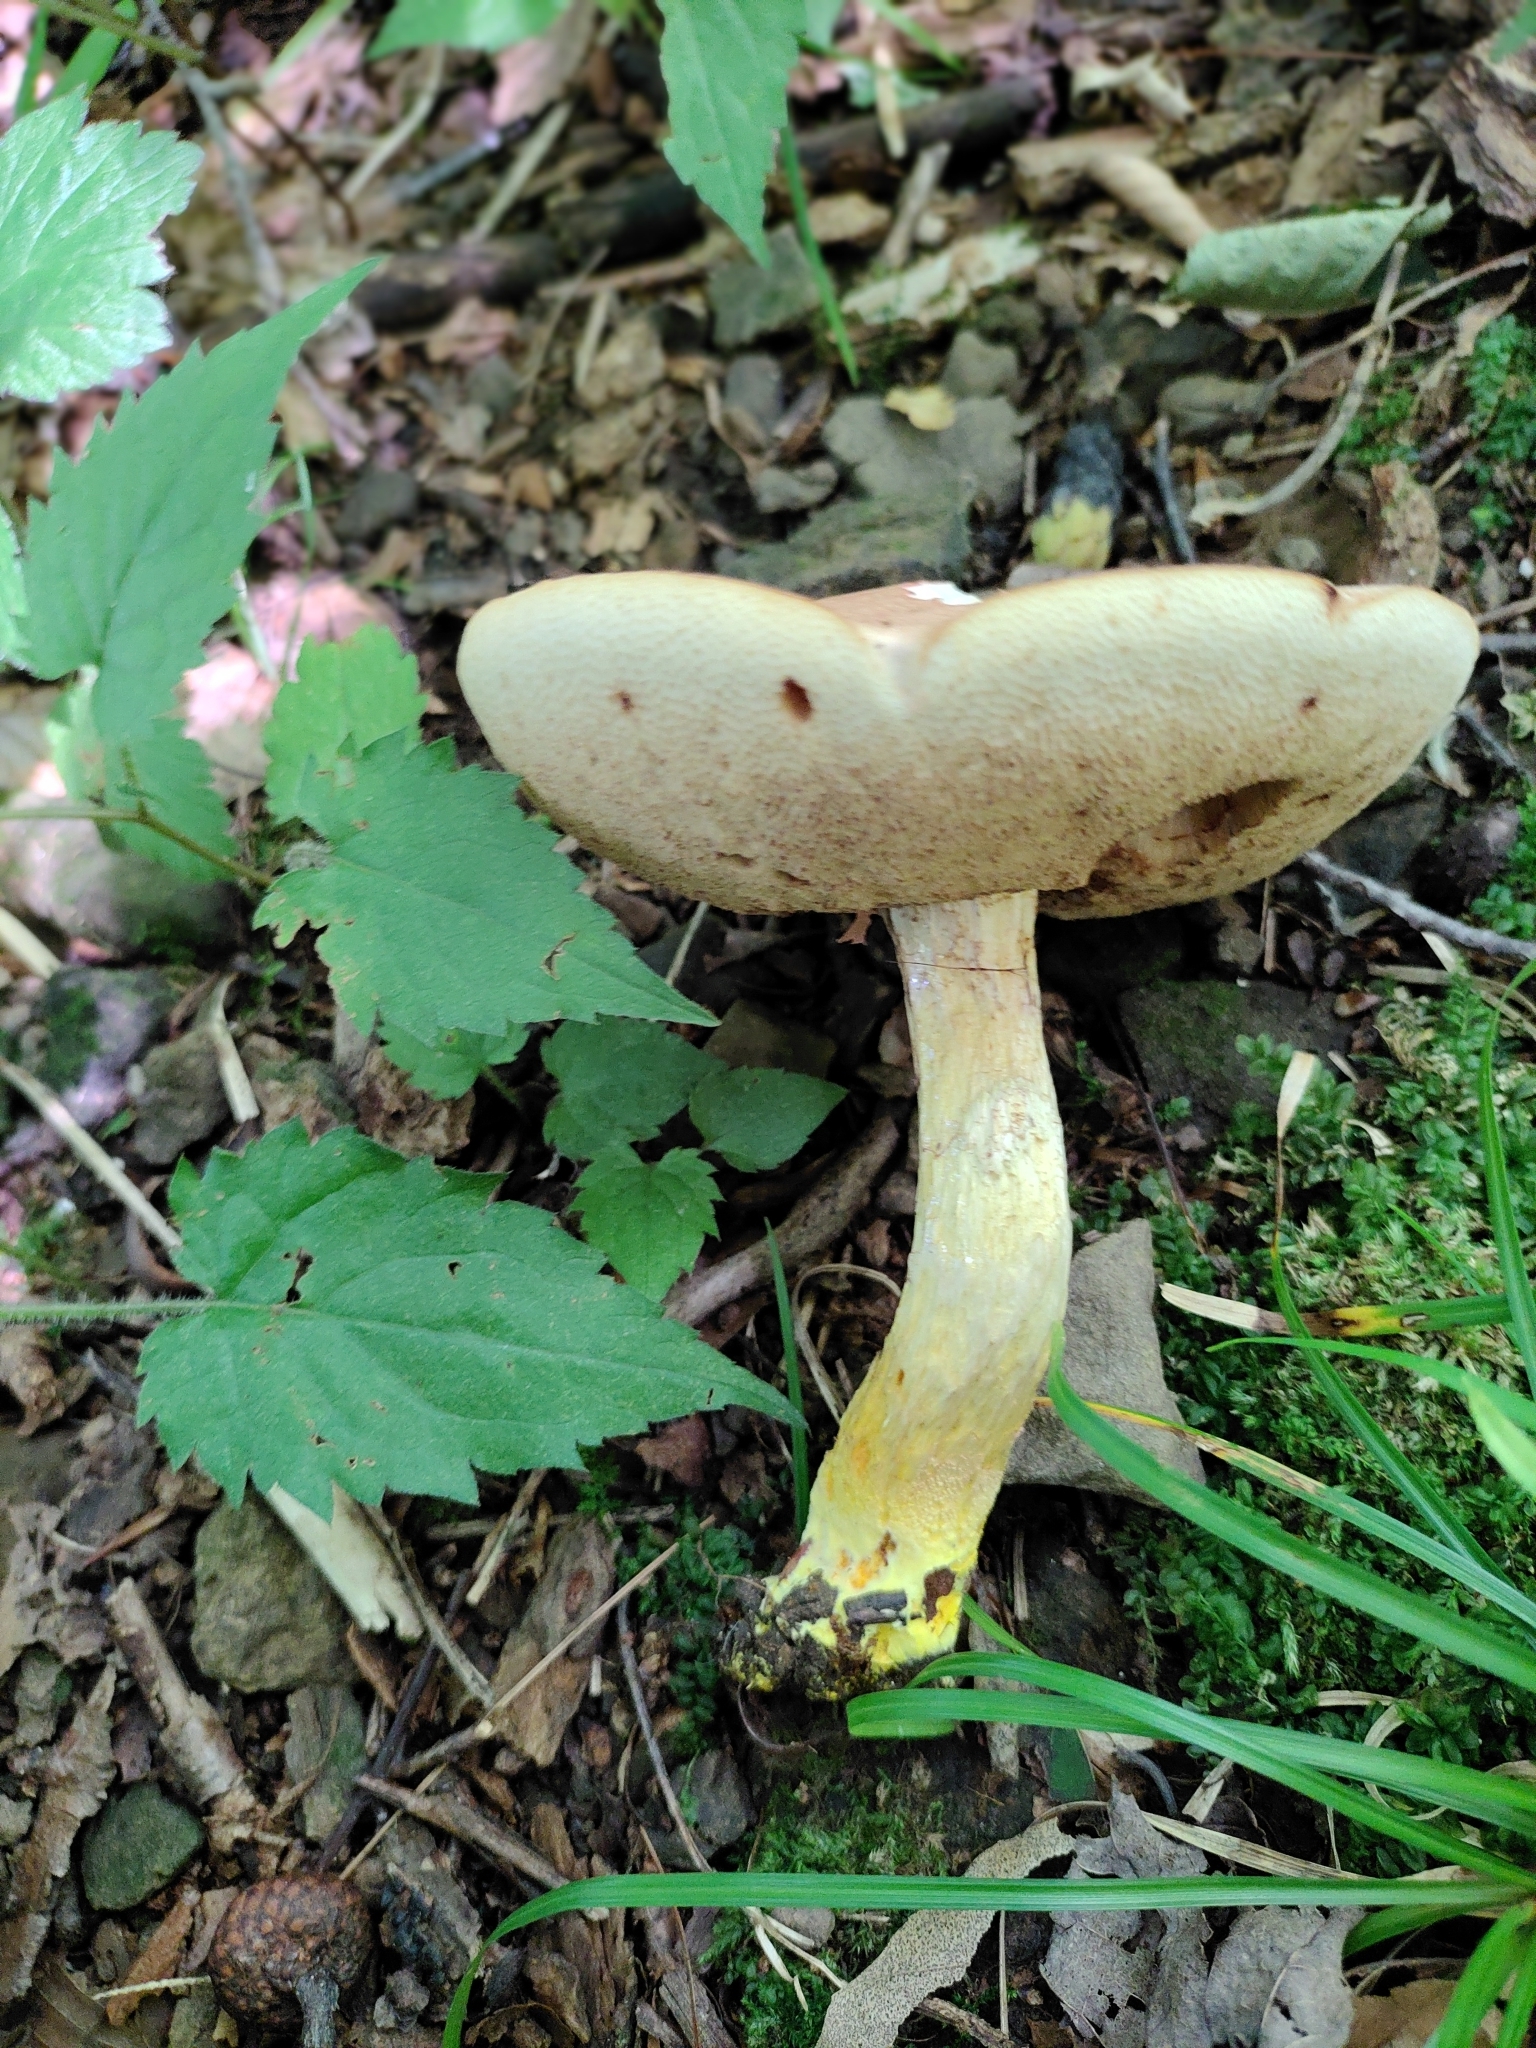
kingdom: Fungi
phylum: Basidiomycota
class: Agaricomycetes
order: Boletales
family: Boletaceae
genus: Harrya
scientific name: Harrya chromipes
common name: Chrome-footed bolete
